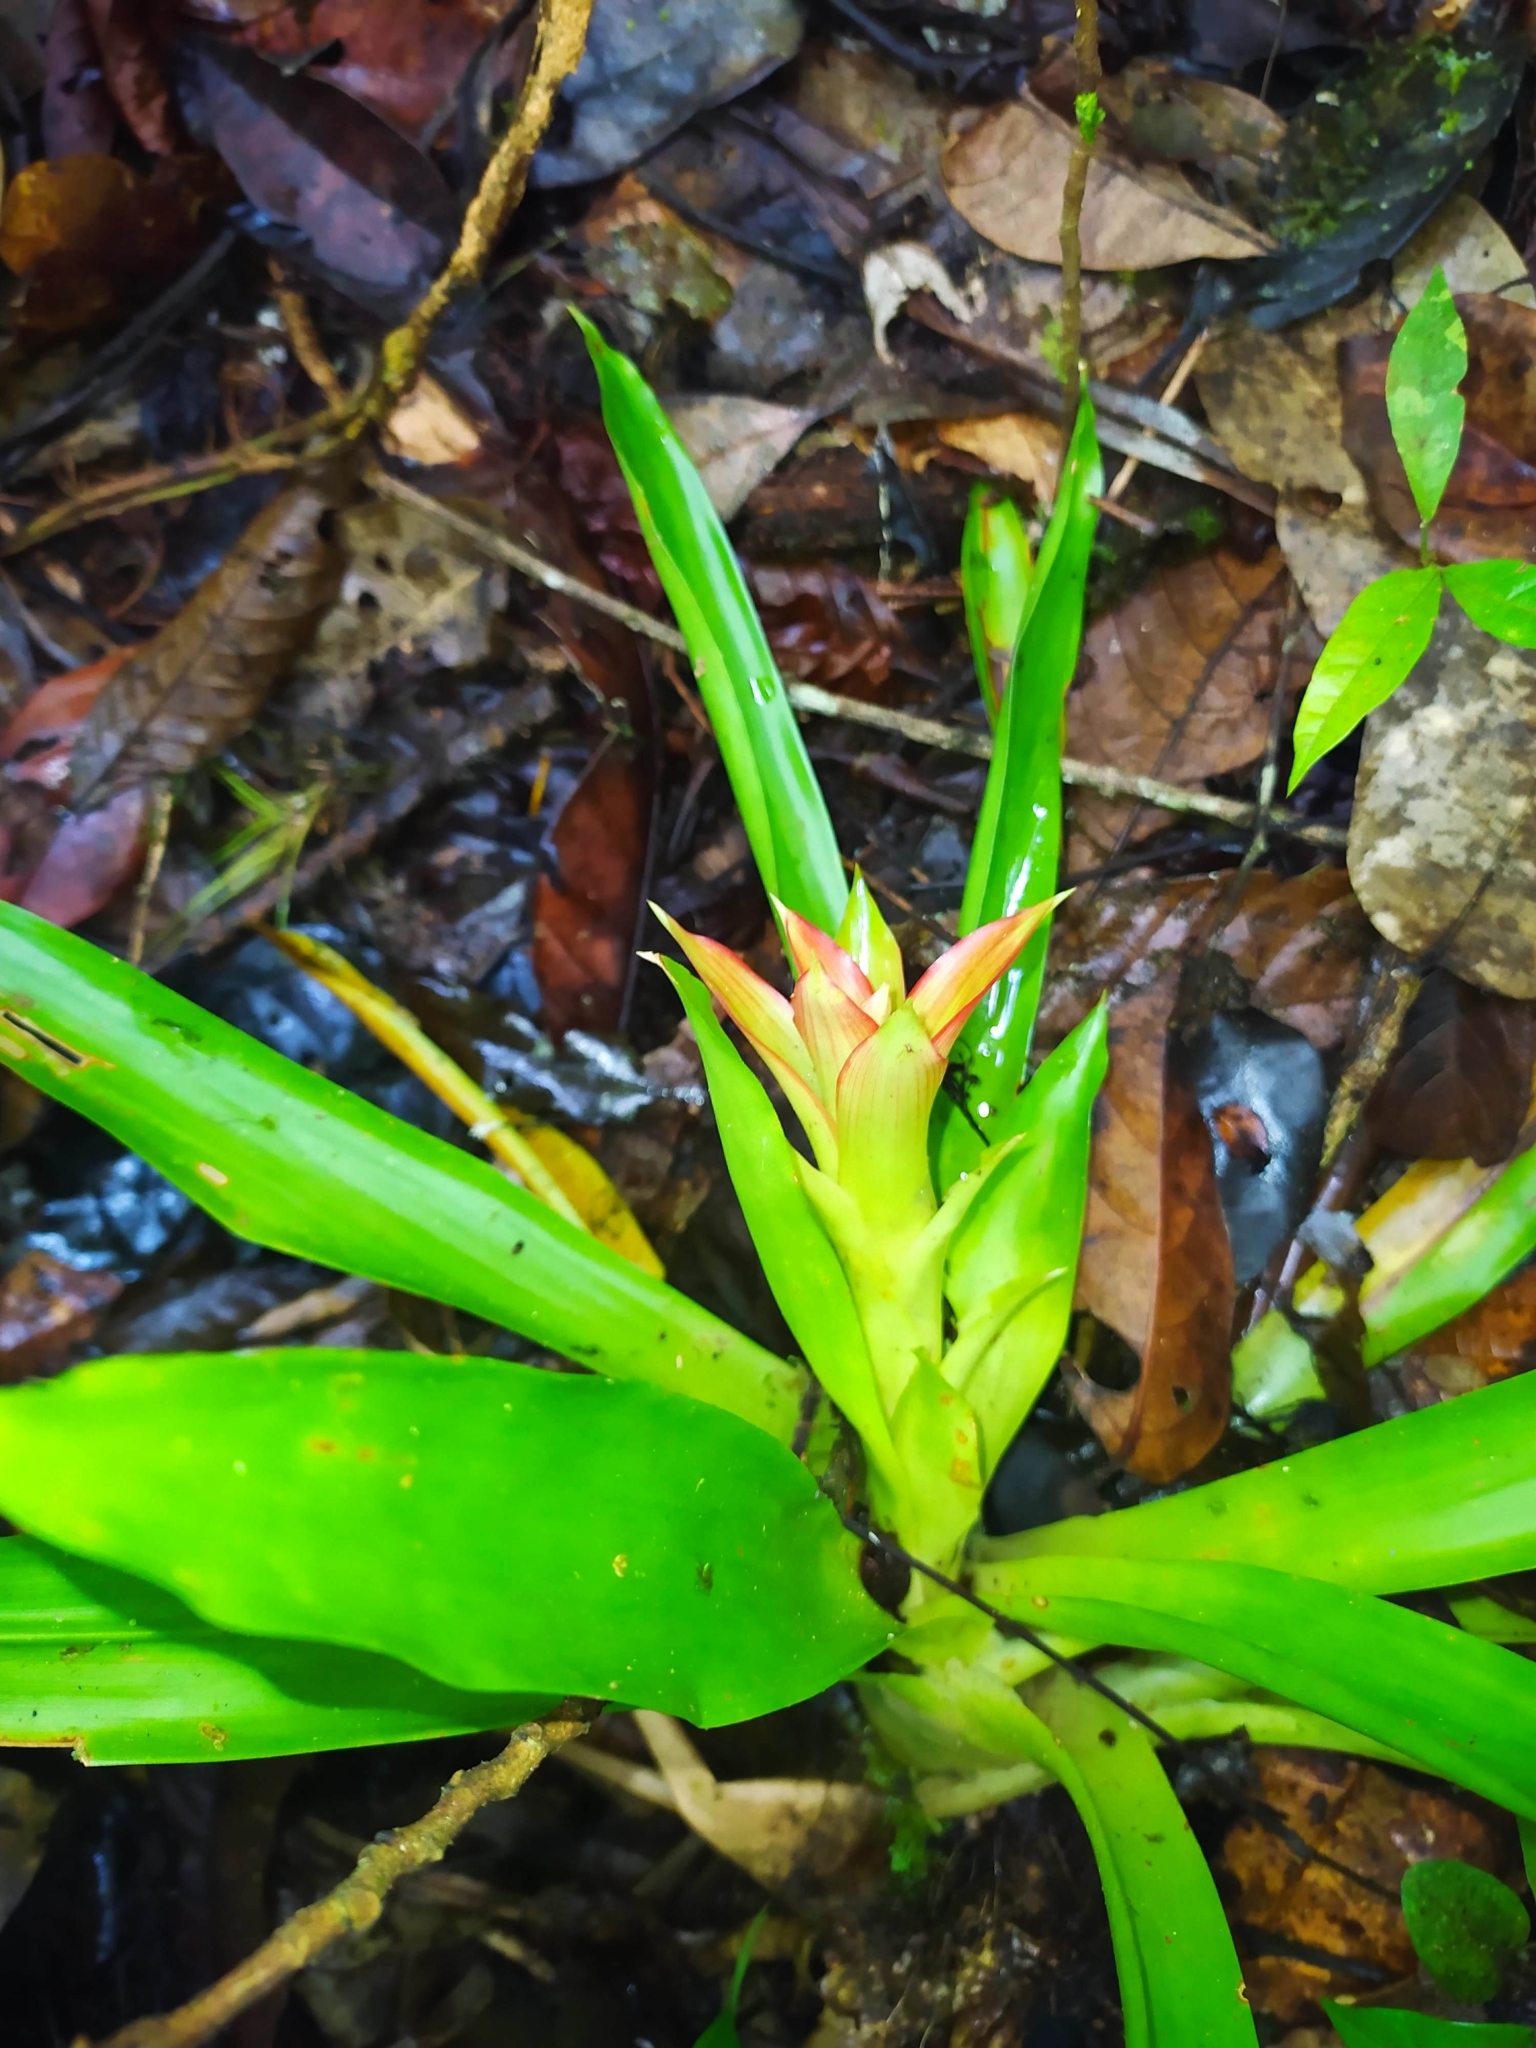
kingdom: Plantae
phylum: Tracheophyta
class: Liliopsida
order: Poales
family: Bromeliaceae
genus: Guzmania
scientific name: Guzmania lingulata
